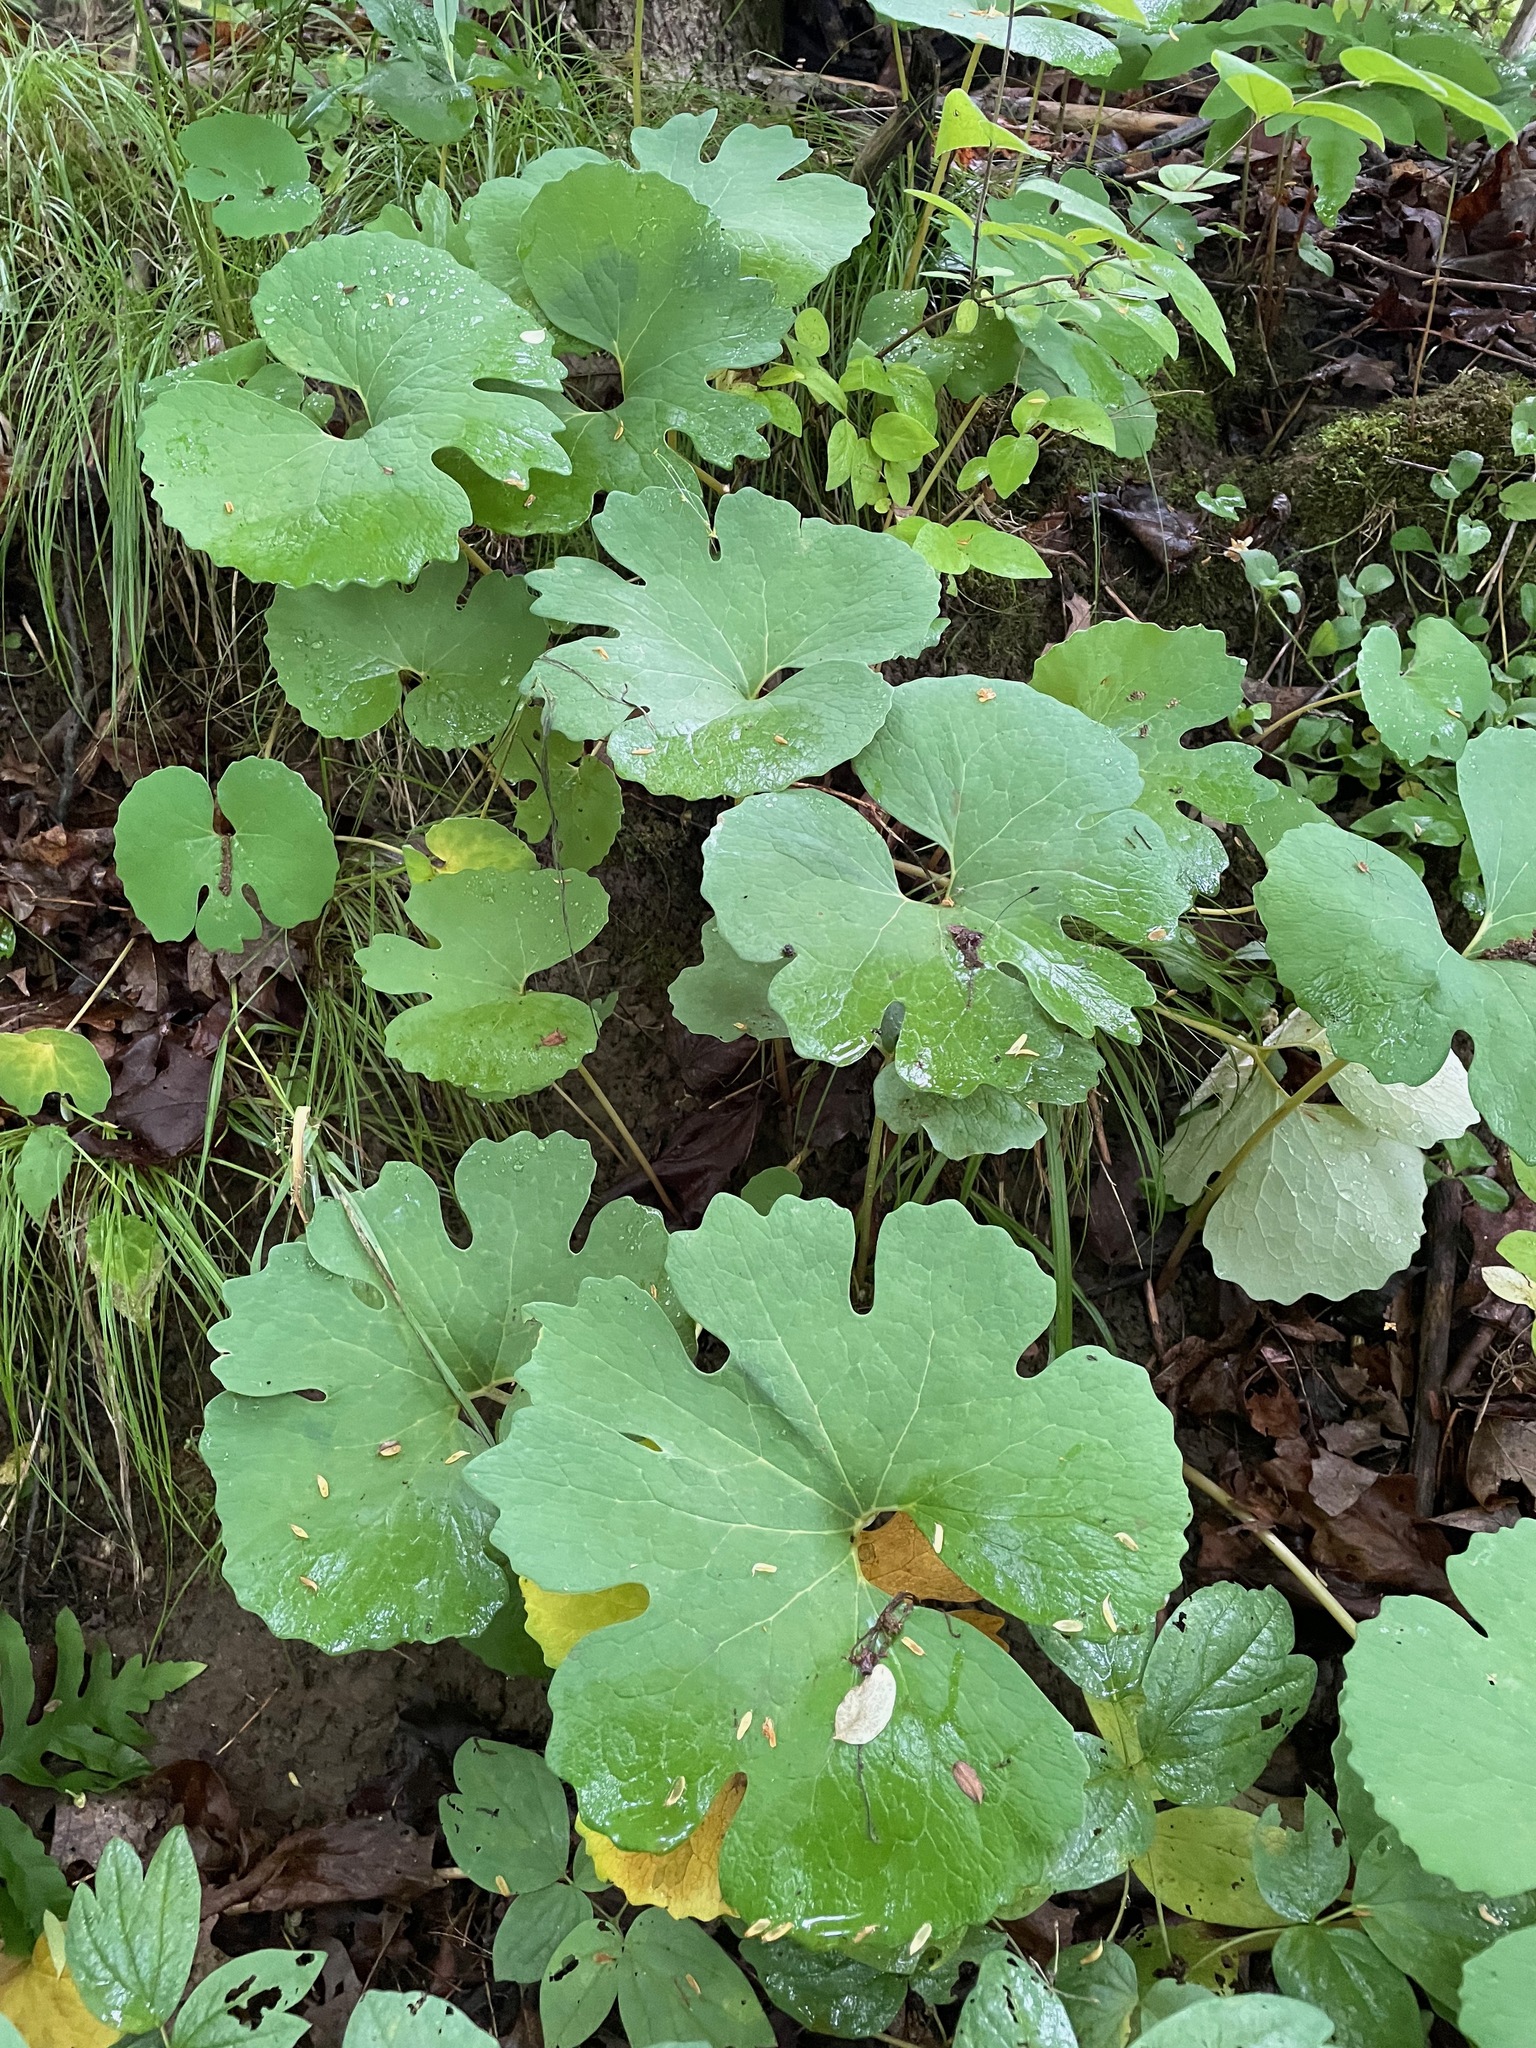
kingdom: Plantae
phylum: Tracheophyta
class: Magnoliopsida
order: Ranunculales
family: Papaveraceae
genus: Sanguinaria
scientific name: Sanguinaria canadensis
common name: Bloodroot
